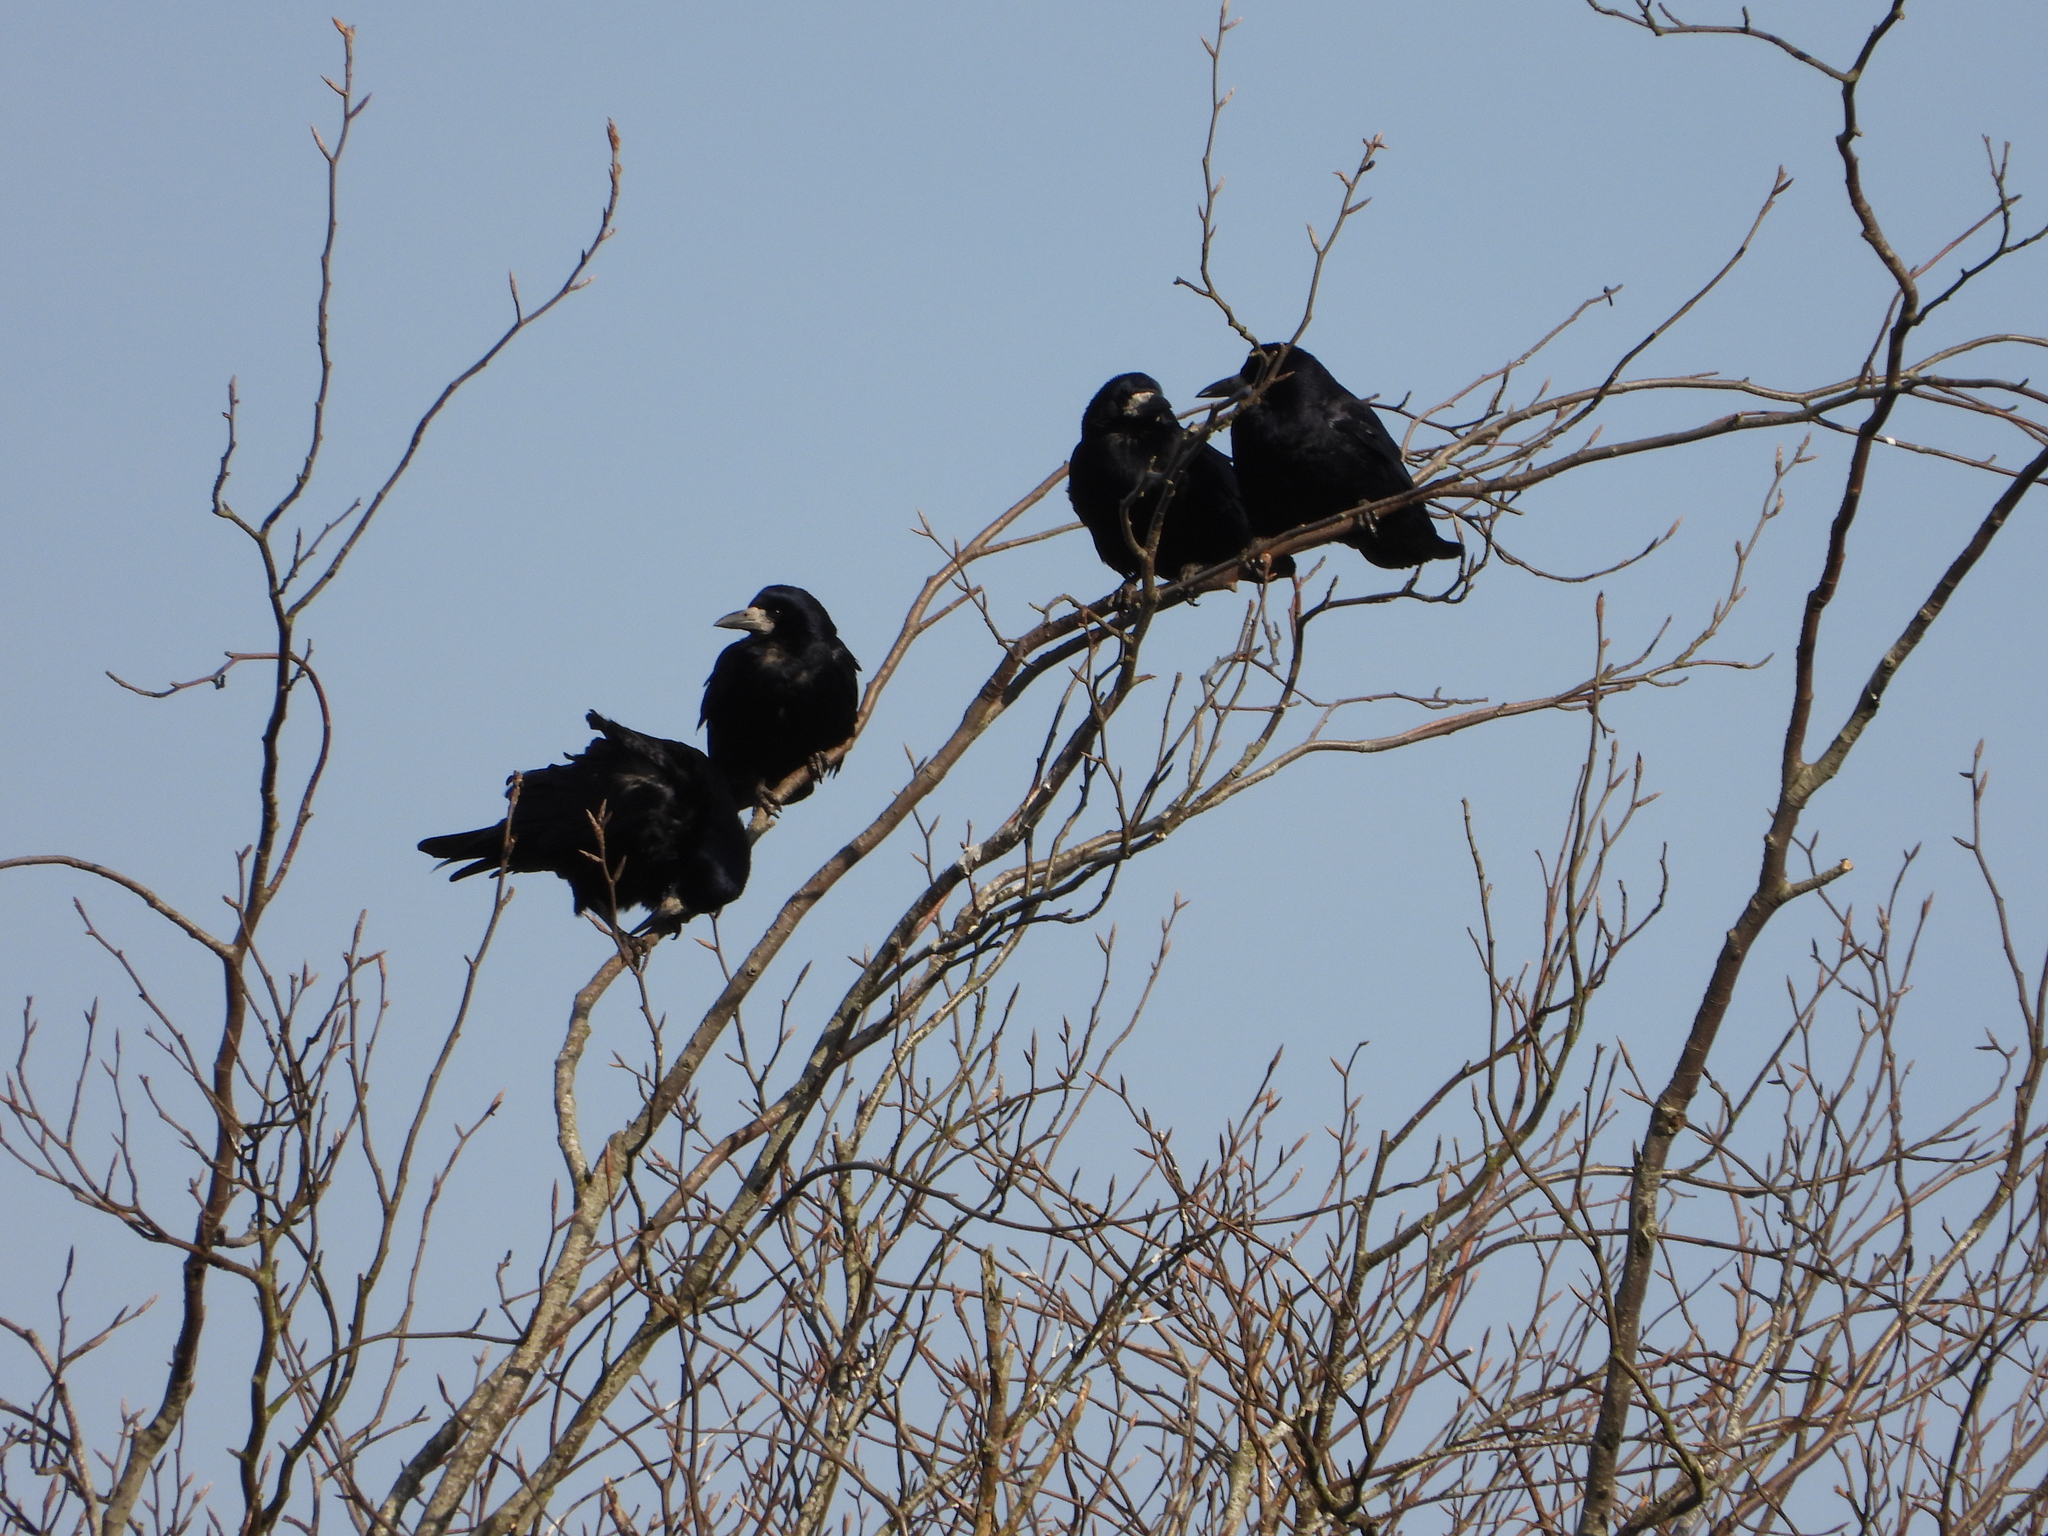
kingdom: Animalia
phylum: Chordata
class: Aves
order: Passeriformes
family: Corvidae
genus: Corvus
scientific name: Corvus frugilegus
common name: Rook
